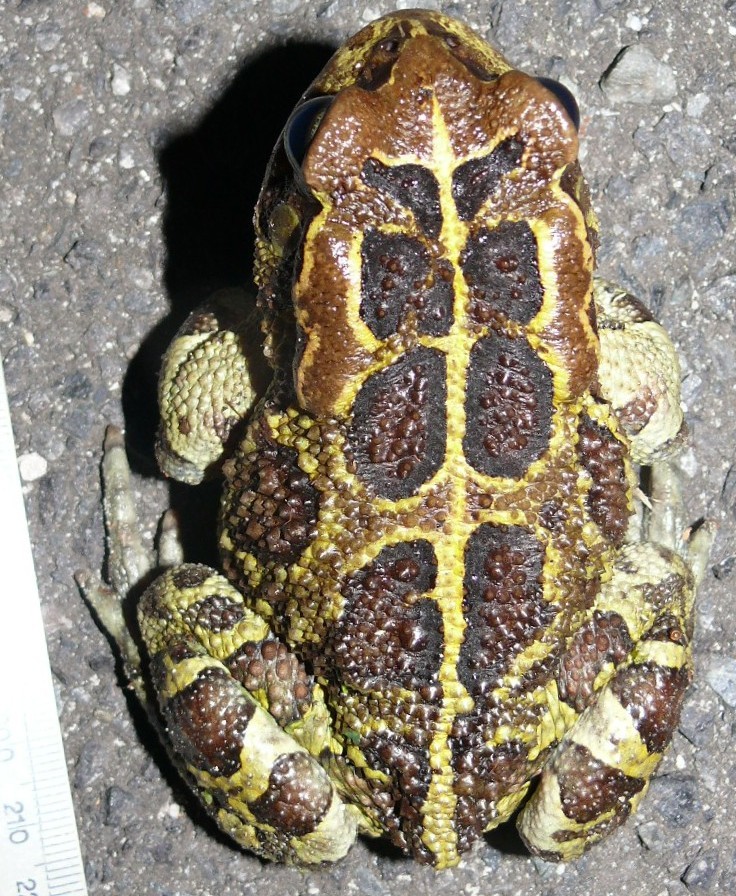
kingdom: Animalia
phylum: Chordata
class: Amphibia
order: Anura
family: Bufonidae
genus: Sclerophrys
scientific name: Sclerophrys pantherina
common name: Panther toad
